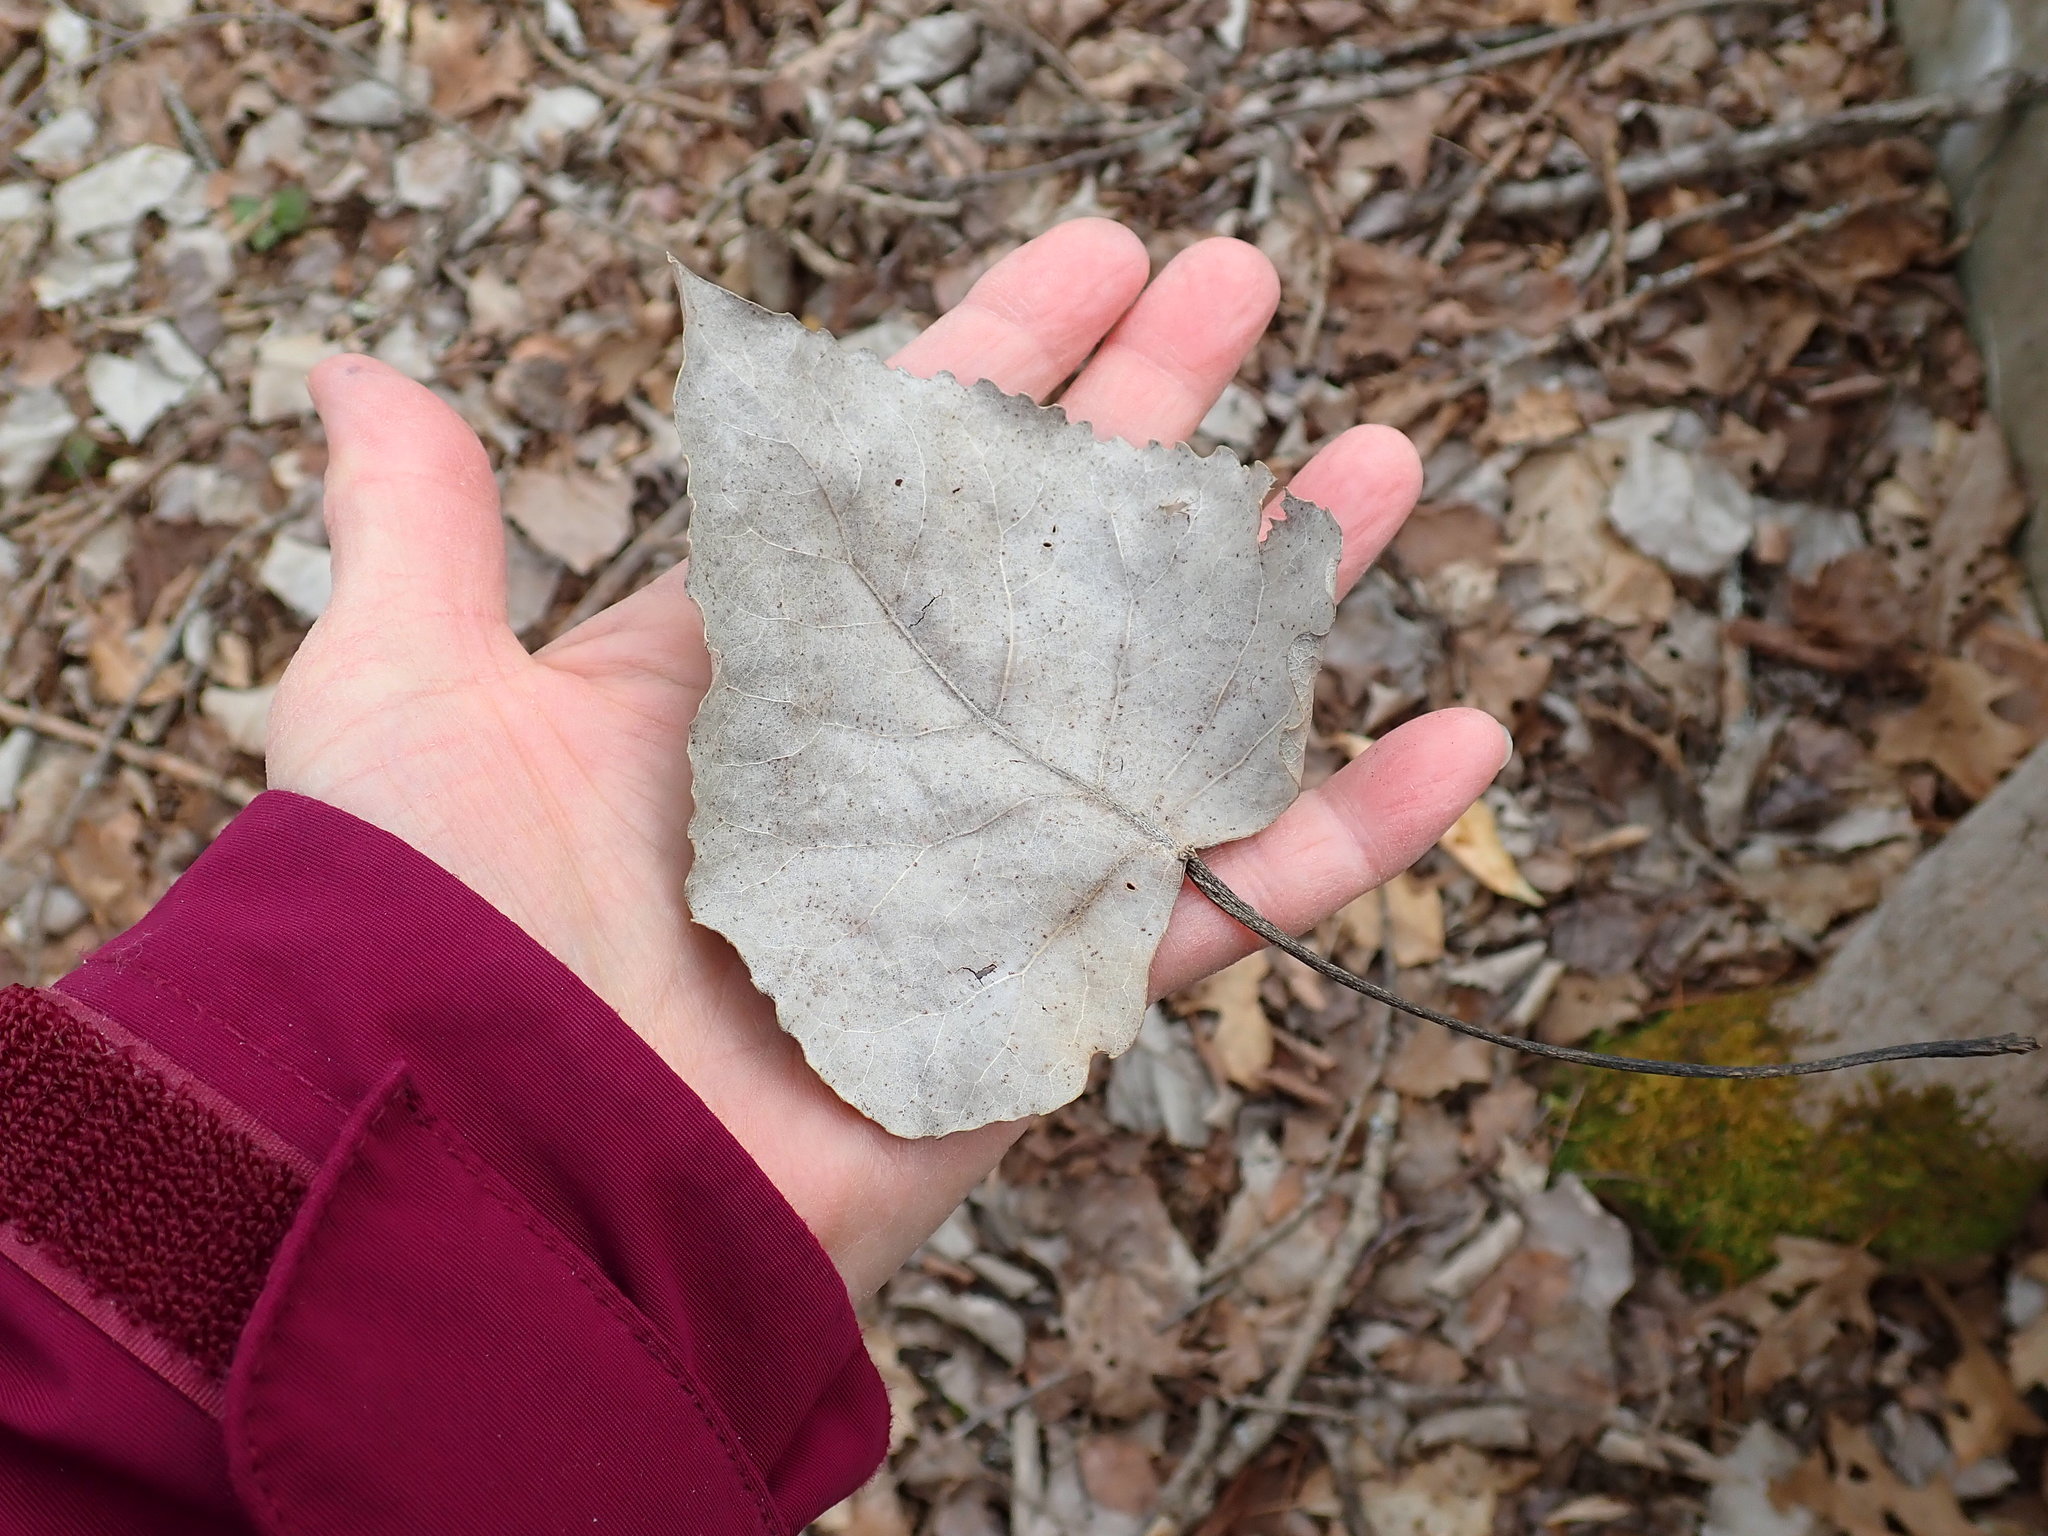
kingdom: Plantae
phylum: Tracheophyta
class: Magnoliopsida
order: Malpighiales
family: Salicaceae
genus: Populus
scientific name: Populus deltoides
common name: Eastern cottonwood
